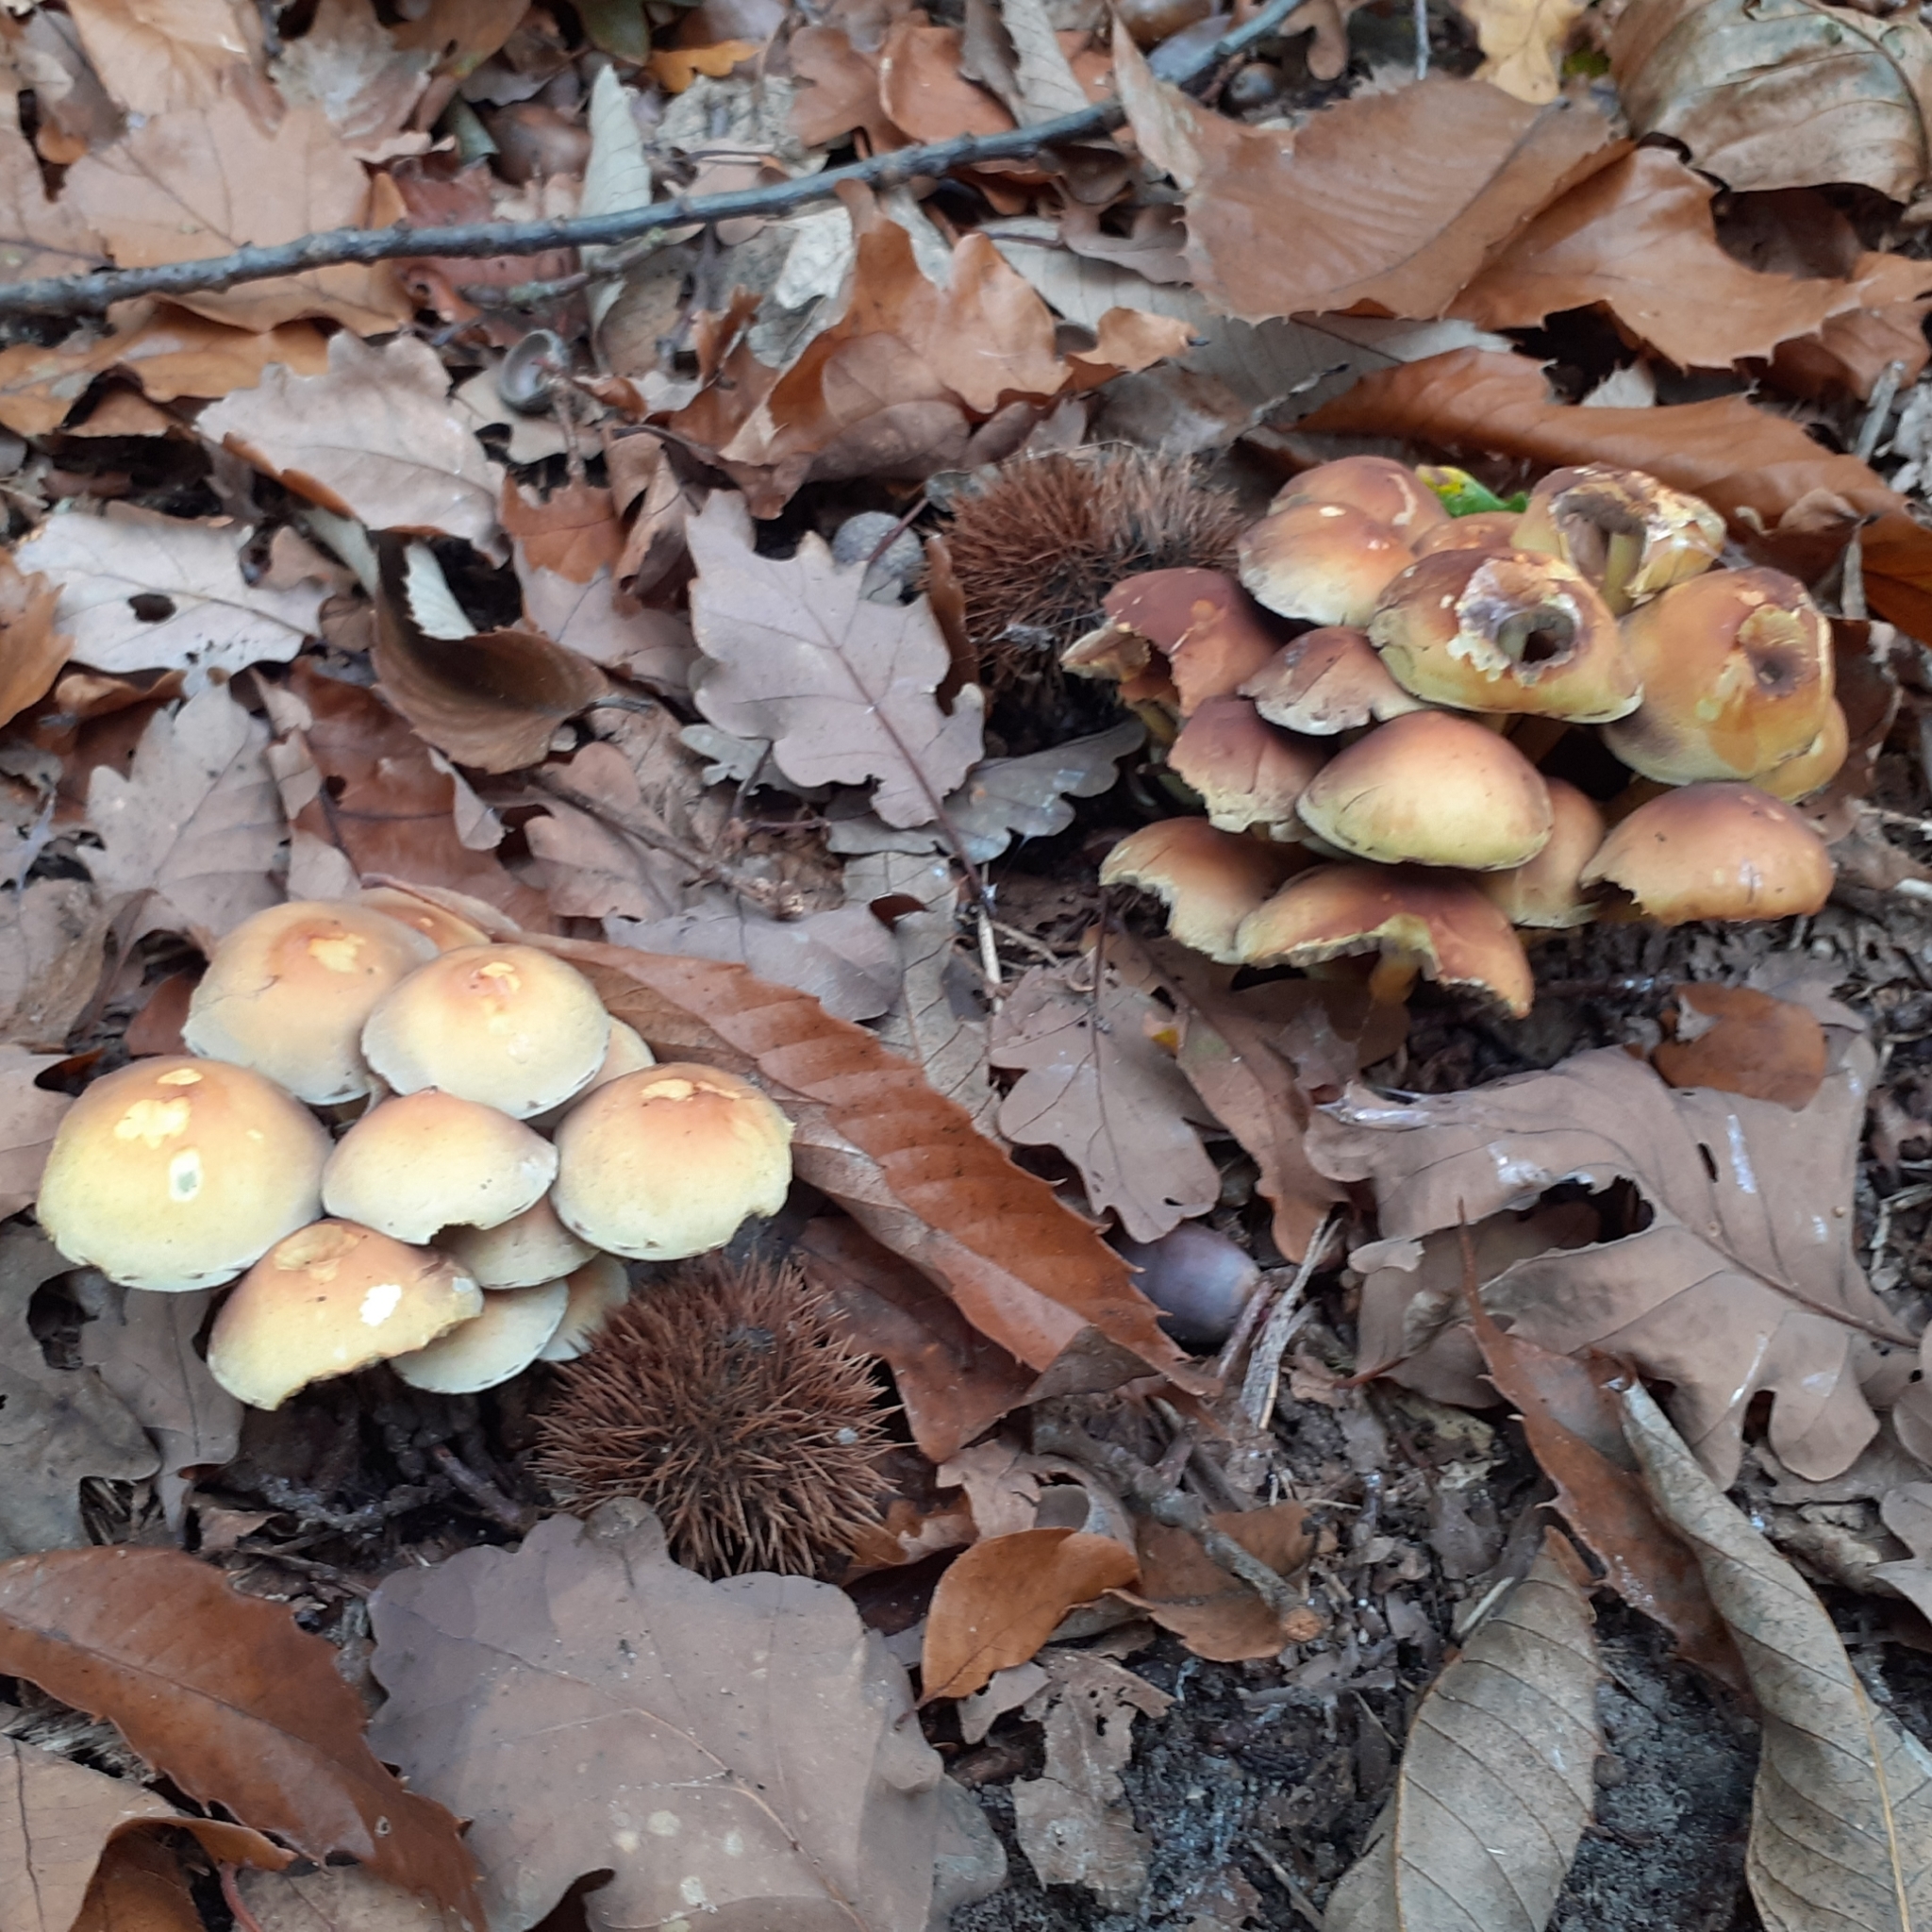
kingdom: Fungi
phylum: Basidiomycota
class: Agaricomycetes
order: Agaricales
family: Strophariaceae
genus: Hypholoma
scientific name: Hypholoma fasciculare
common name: Sulphur tuft
